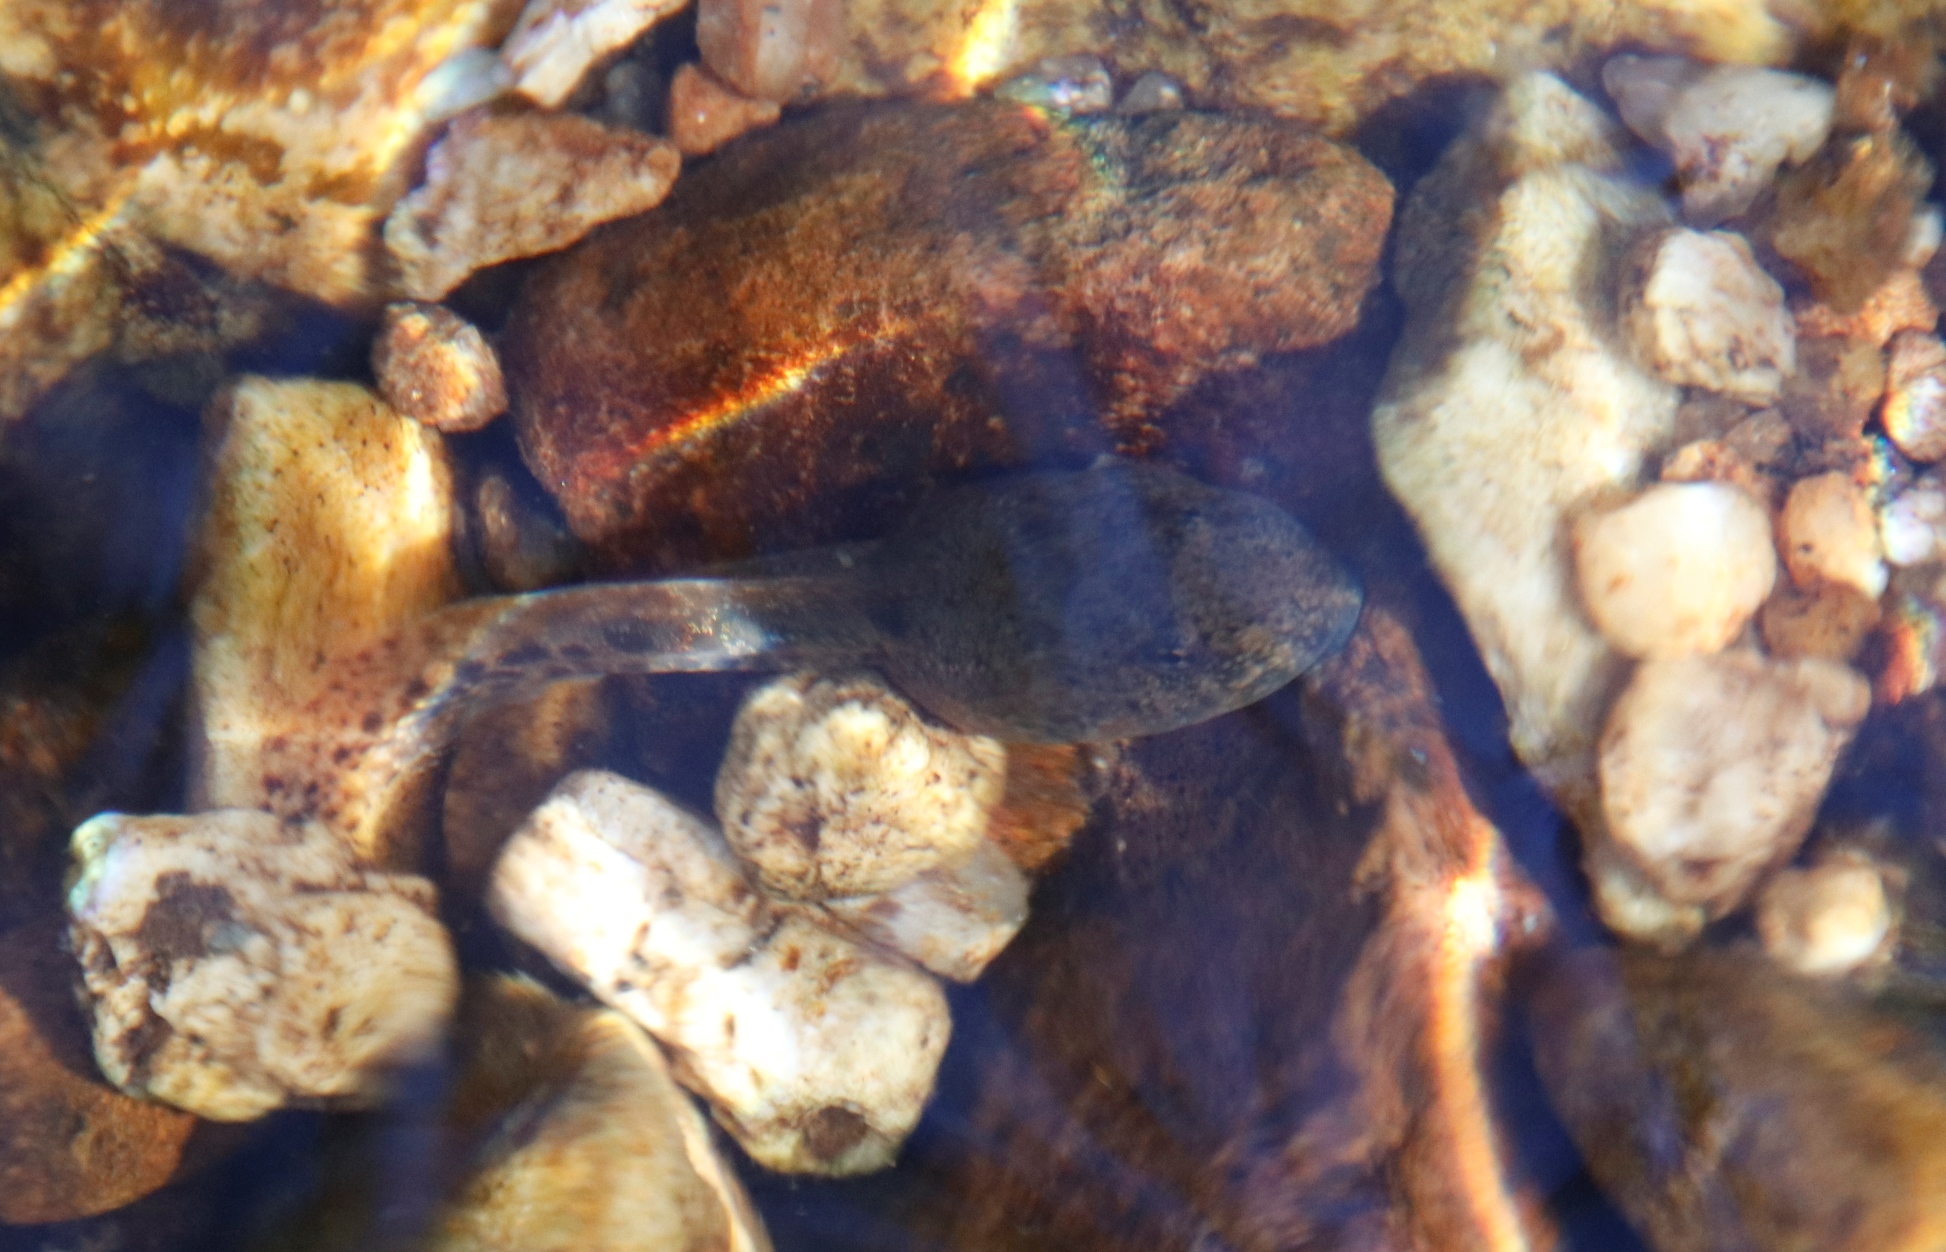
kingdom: Animalia
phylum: Chordata
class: Amphibia
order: Anura
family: Pyxicephalidae
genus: Amietia
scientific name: Amietia fuscigula
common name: Cape rana
